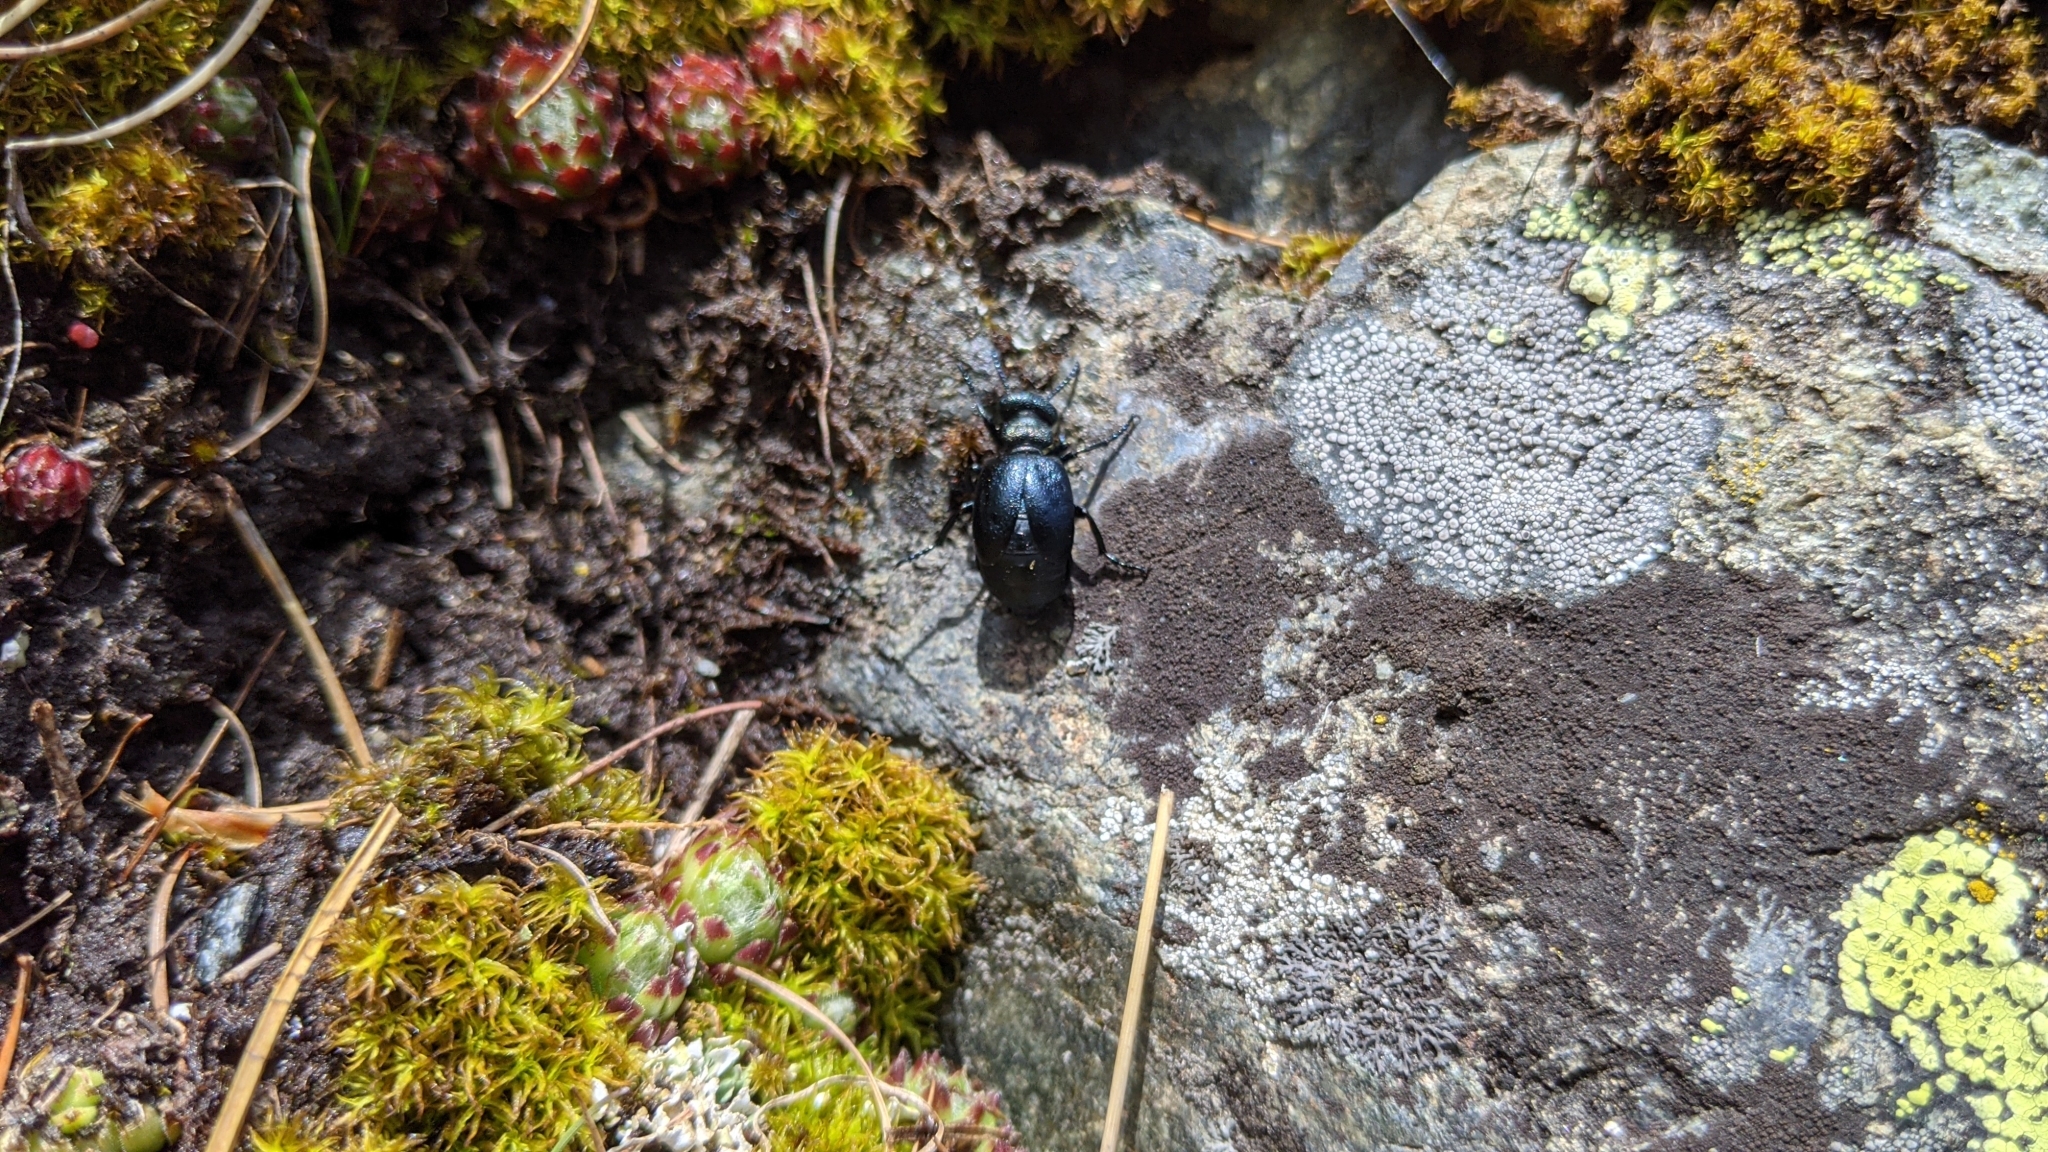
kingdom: Animalia
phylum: Arthropoda
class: Insecta
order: Coleoptera
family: Meloidae
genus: Meloe
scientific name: Meloe brevicollis
